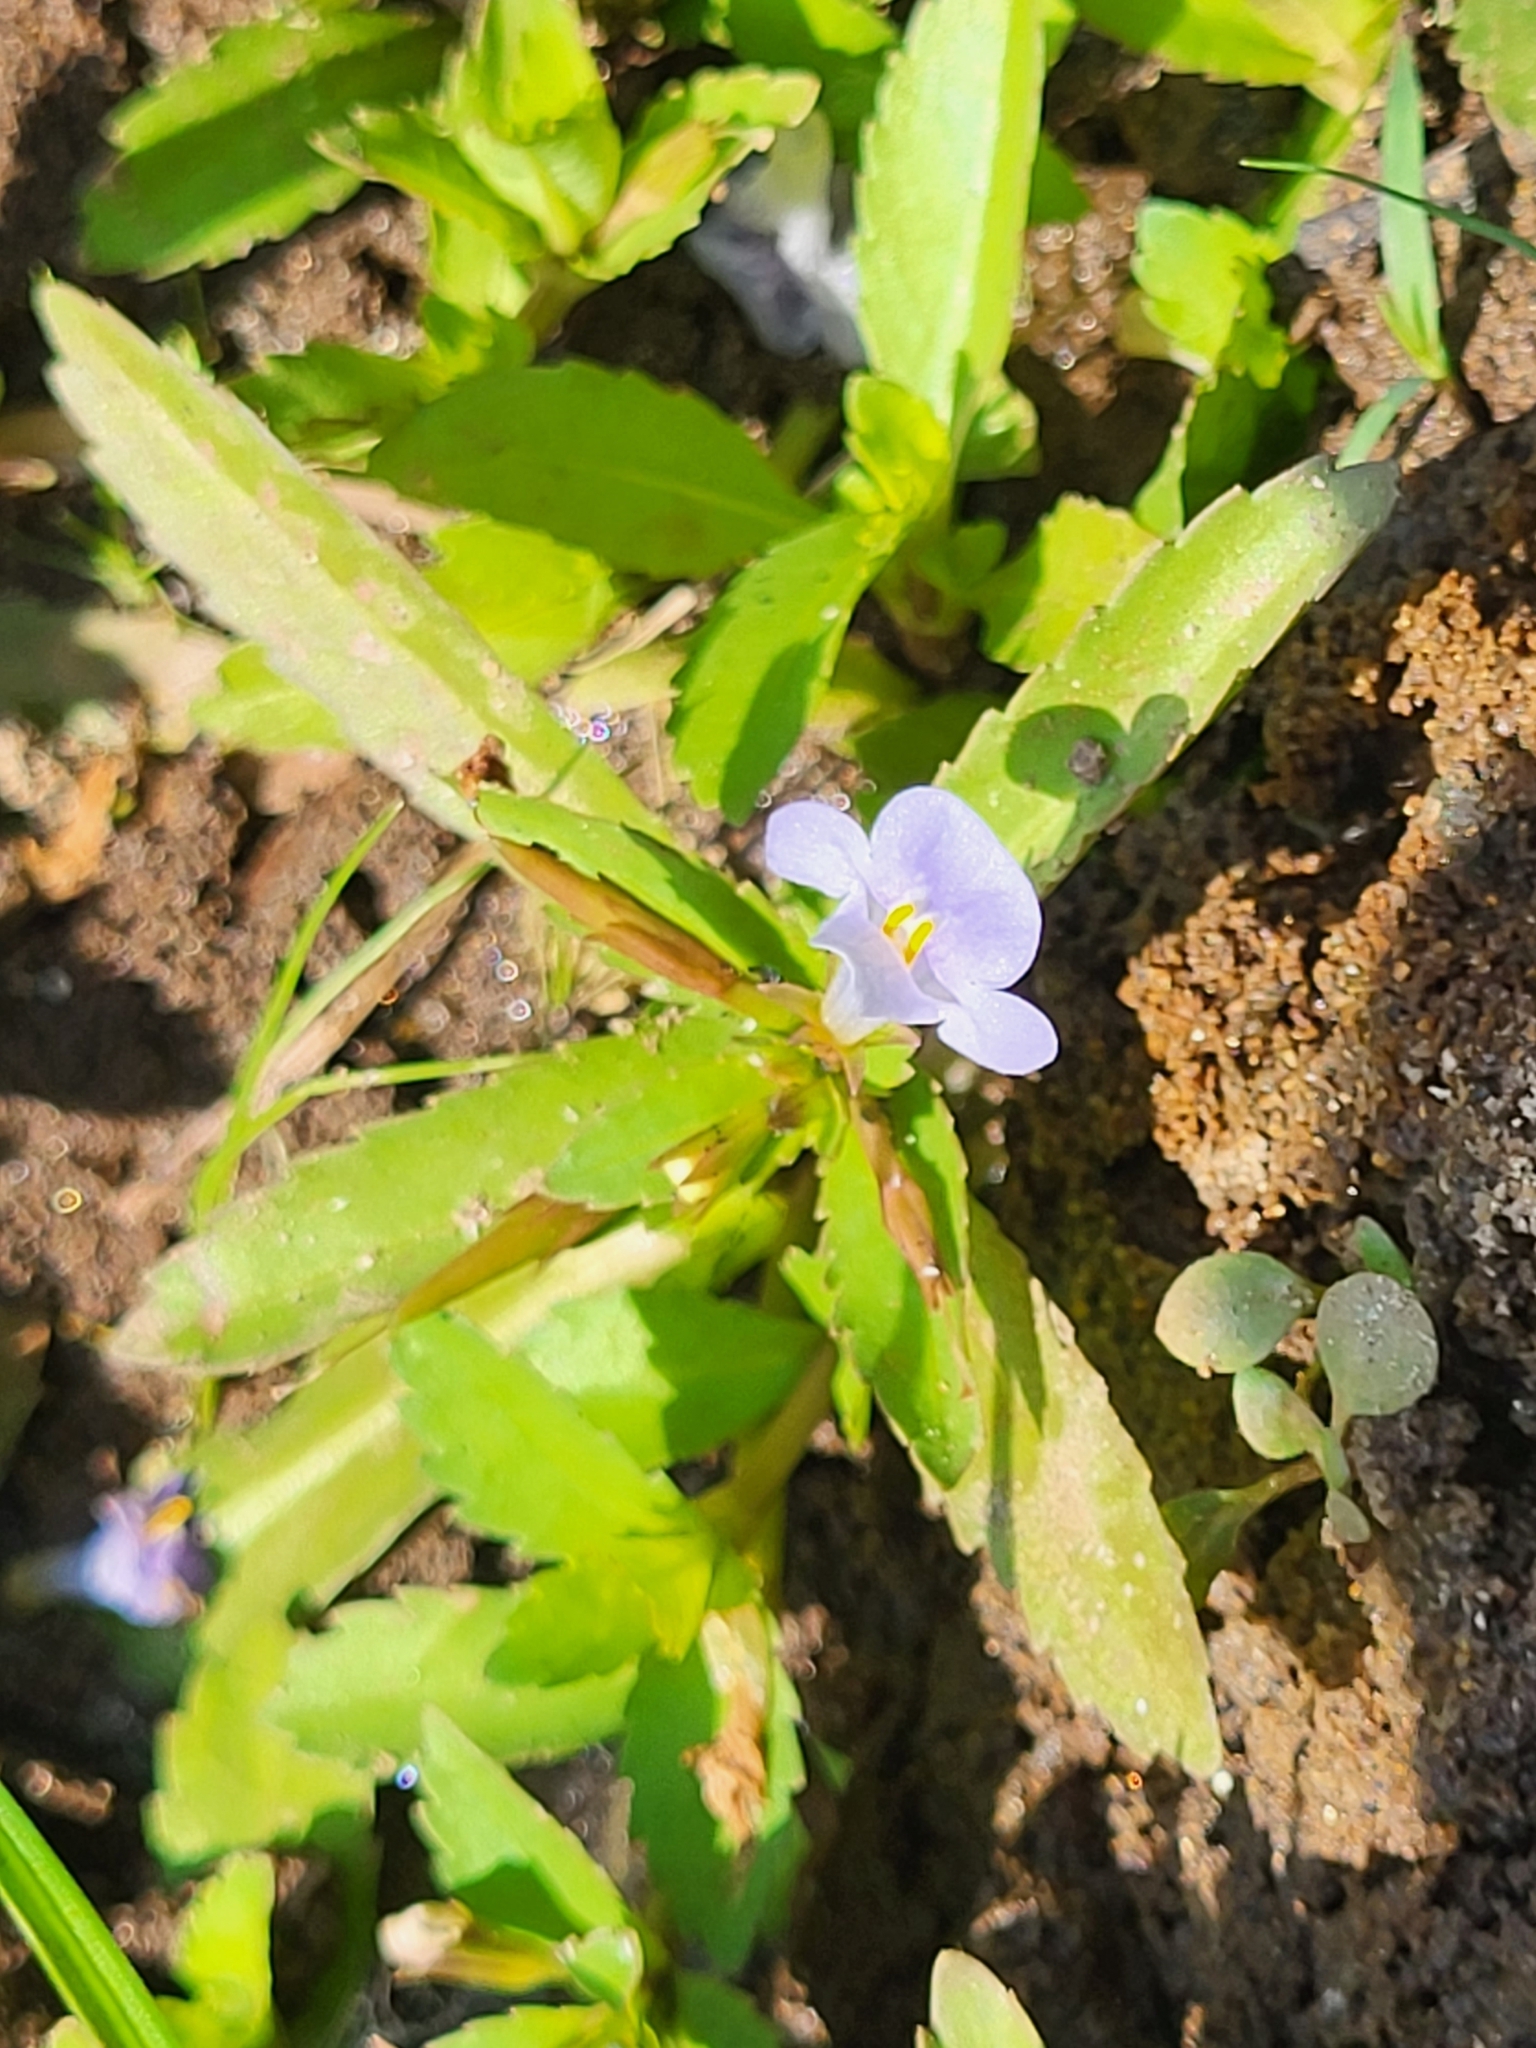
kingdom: Plantae
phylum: Tracheophyta
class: Magnoliopsida
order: Lamiales
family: Linderniaceae
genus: Bonnaya
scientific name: Bonnaya antipoda
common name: Sparrow false pimpernel
